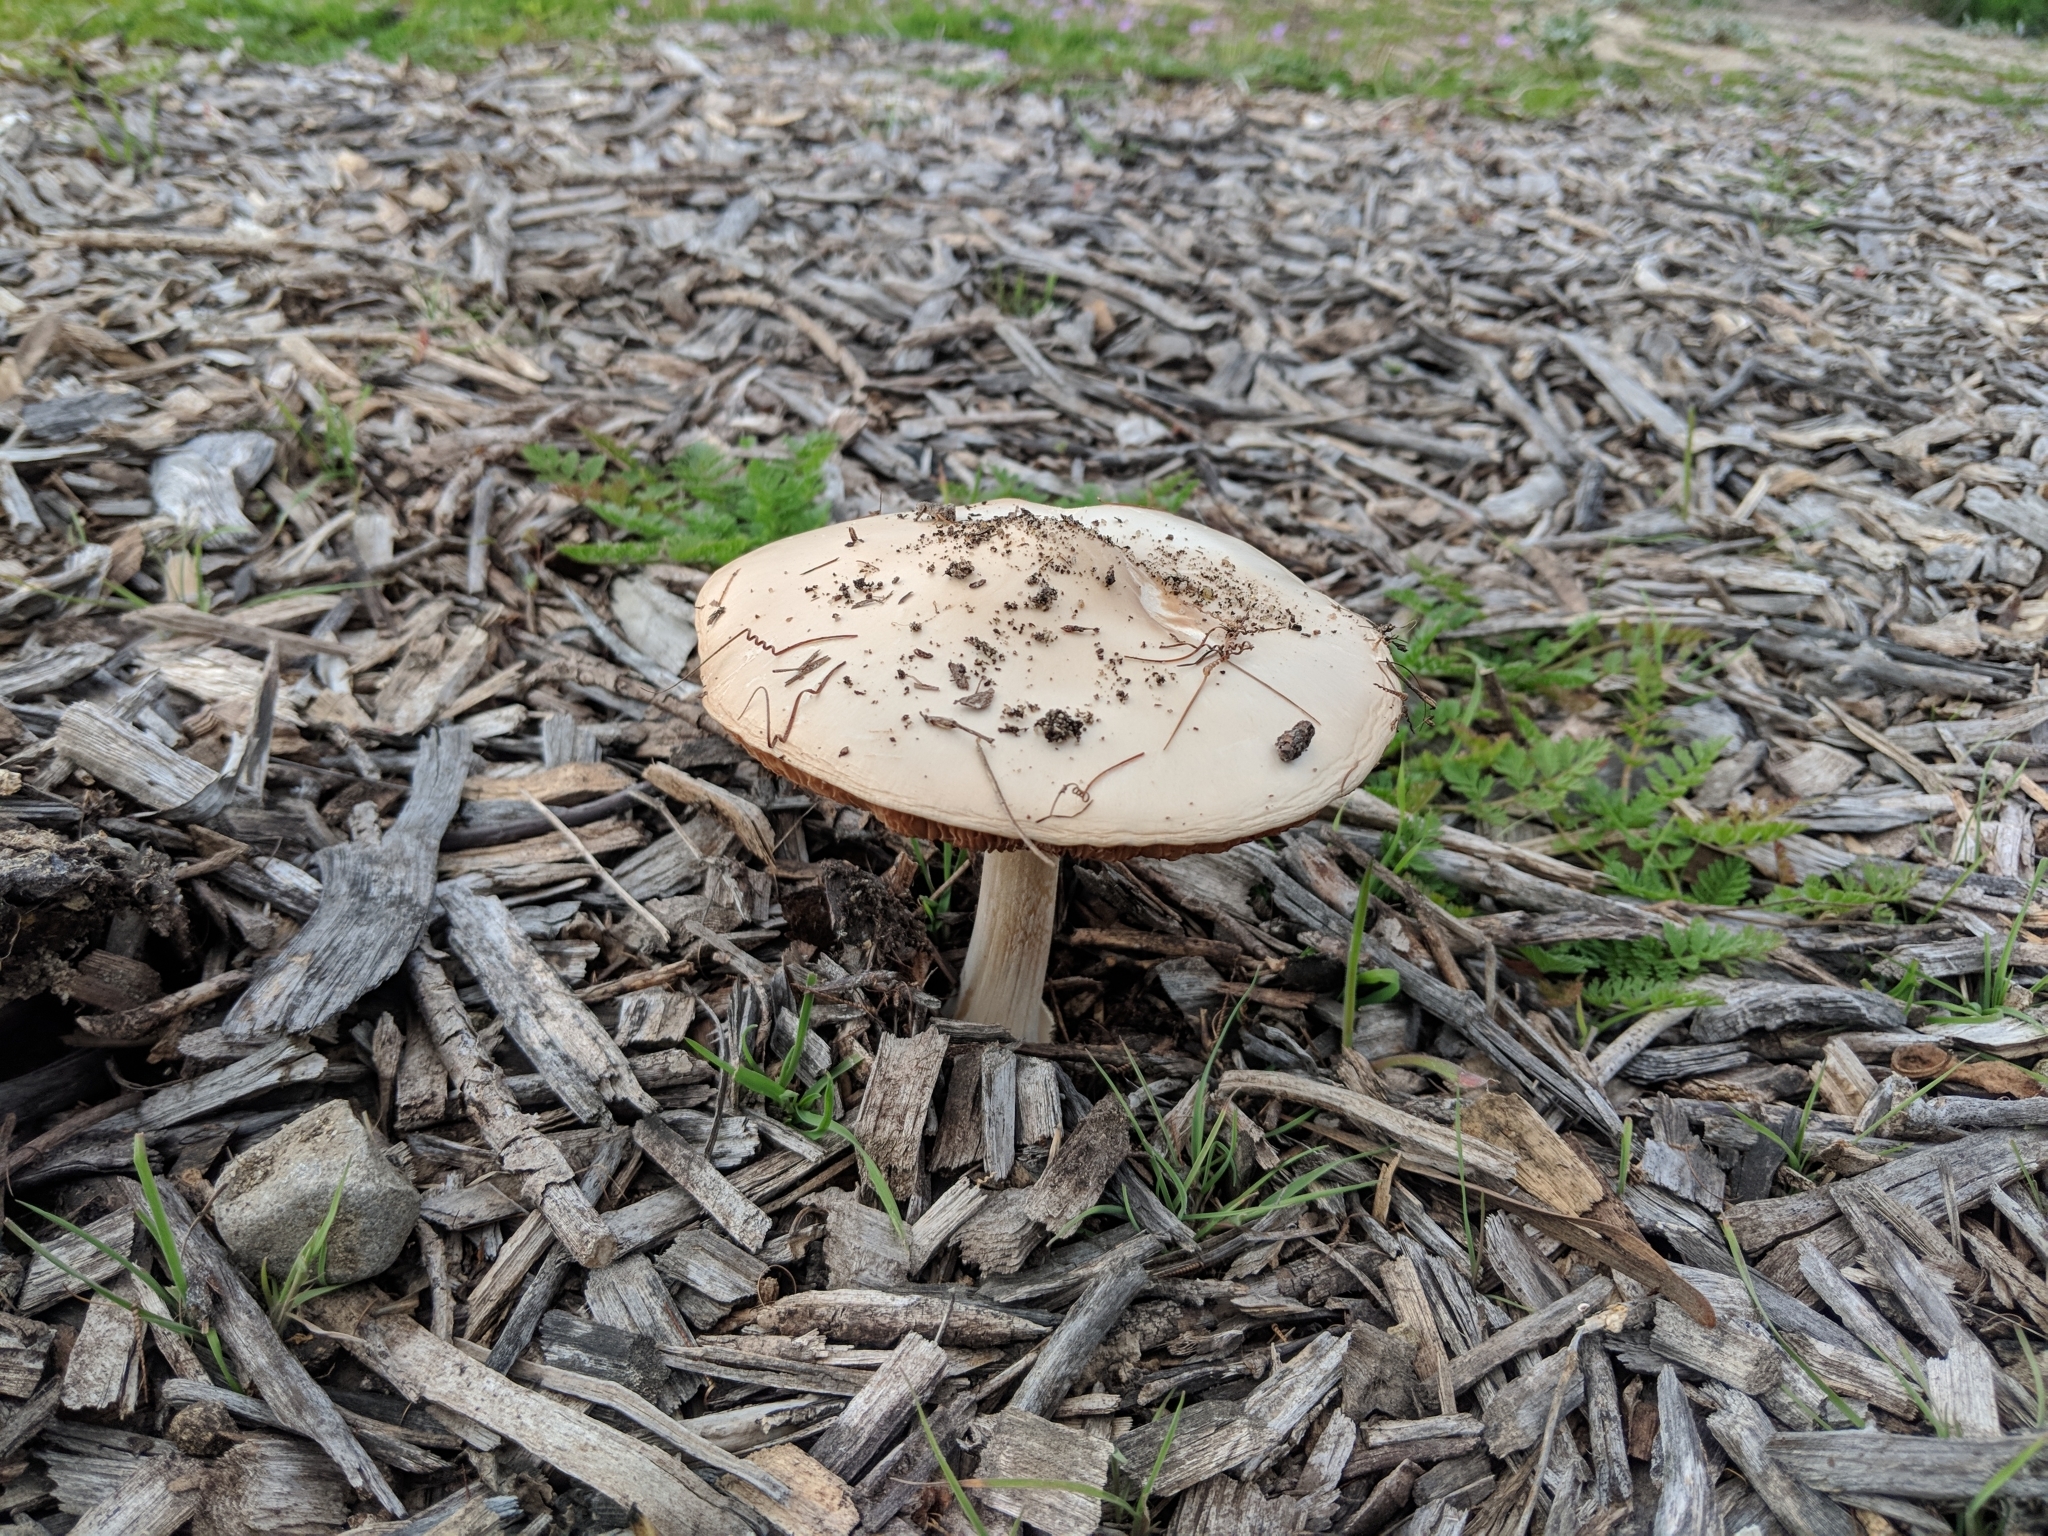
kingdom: Fungi
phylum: Basidiomycota
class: Agaricomycetes
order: Agaricales
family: Pluteaceae
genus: Volvopluteus
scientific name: Volvopluteus gloiocephalus
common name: Stubble rosegill
